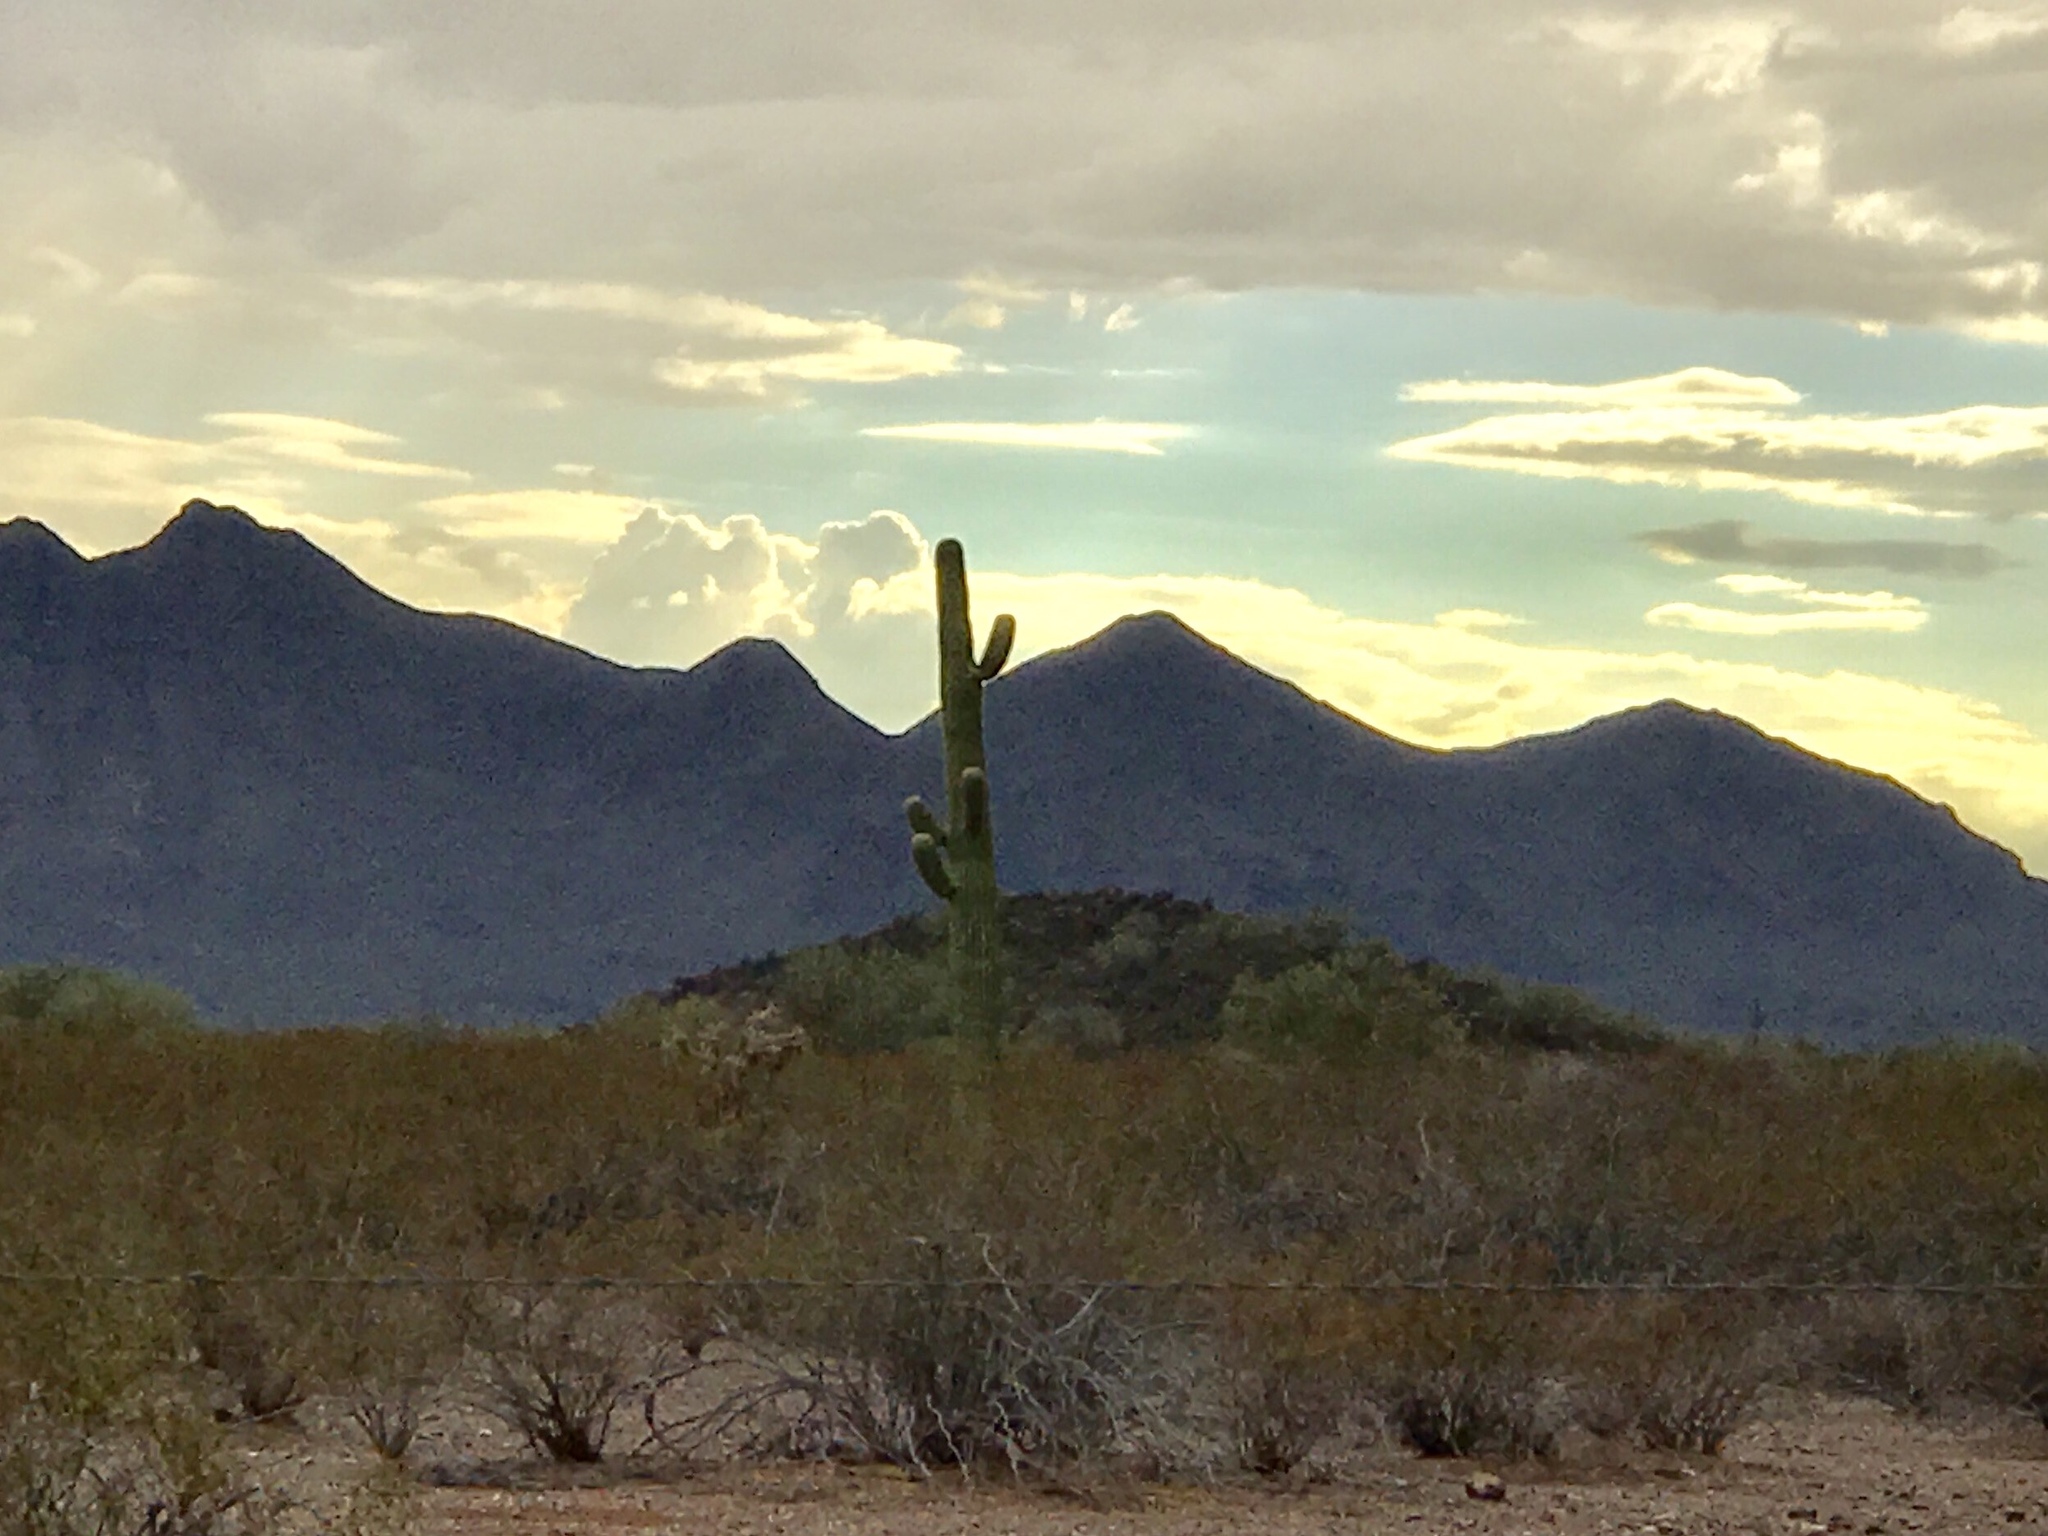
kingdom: Plantae
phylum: Tracheophyta
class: Magnoliopsida
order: Caryophyllales
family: Cactaceae
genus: Carnegiea
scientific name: Carnegiea gigantea
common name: Saguaro
